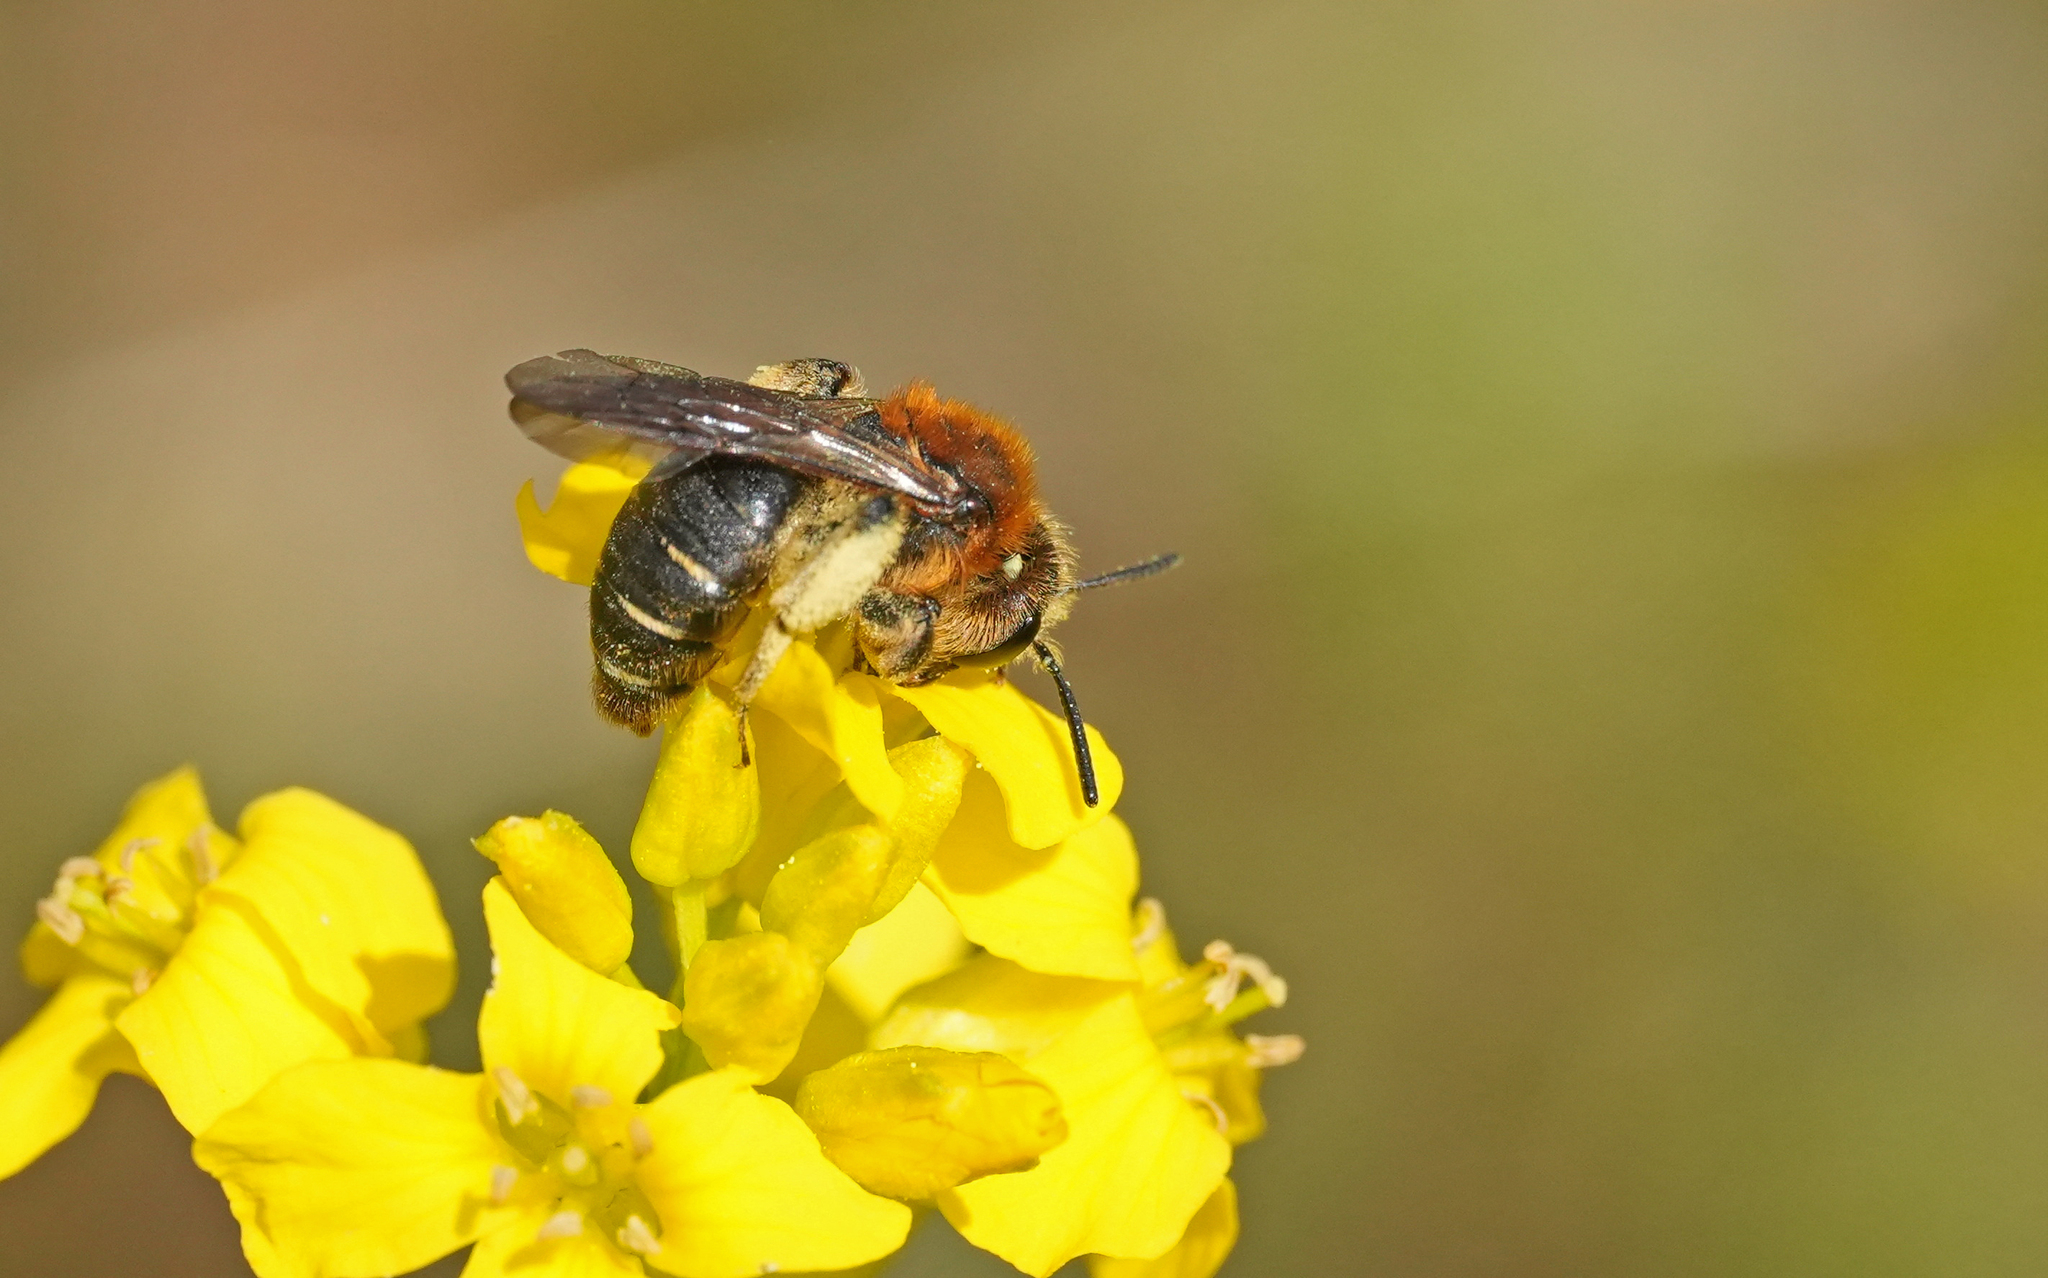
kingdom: Animalia
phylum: Arthropoda
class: Insecta
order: Hymenoptera
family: Andrenidae
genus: Andrena
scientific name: Andrena lagopus
